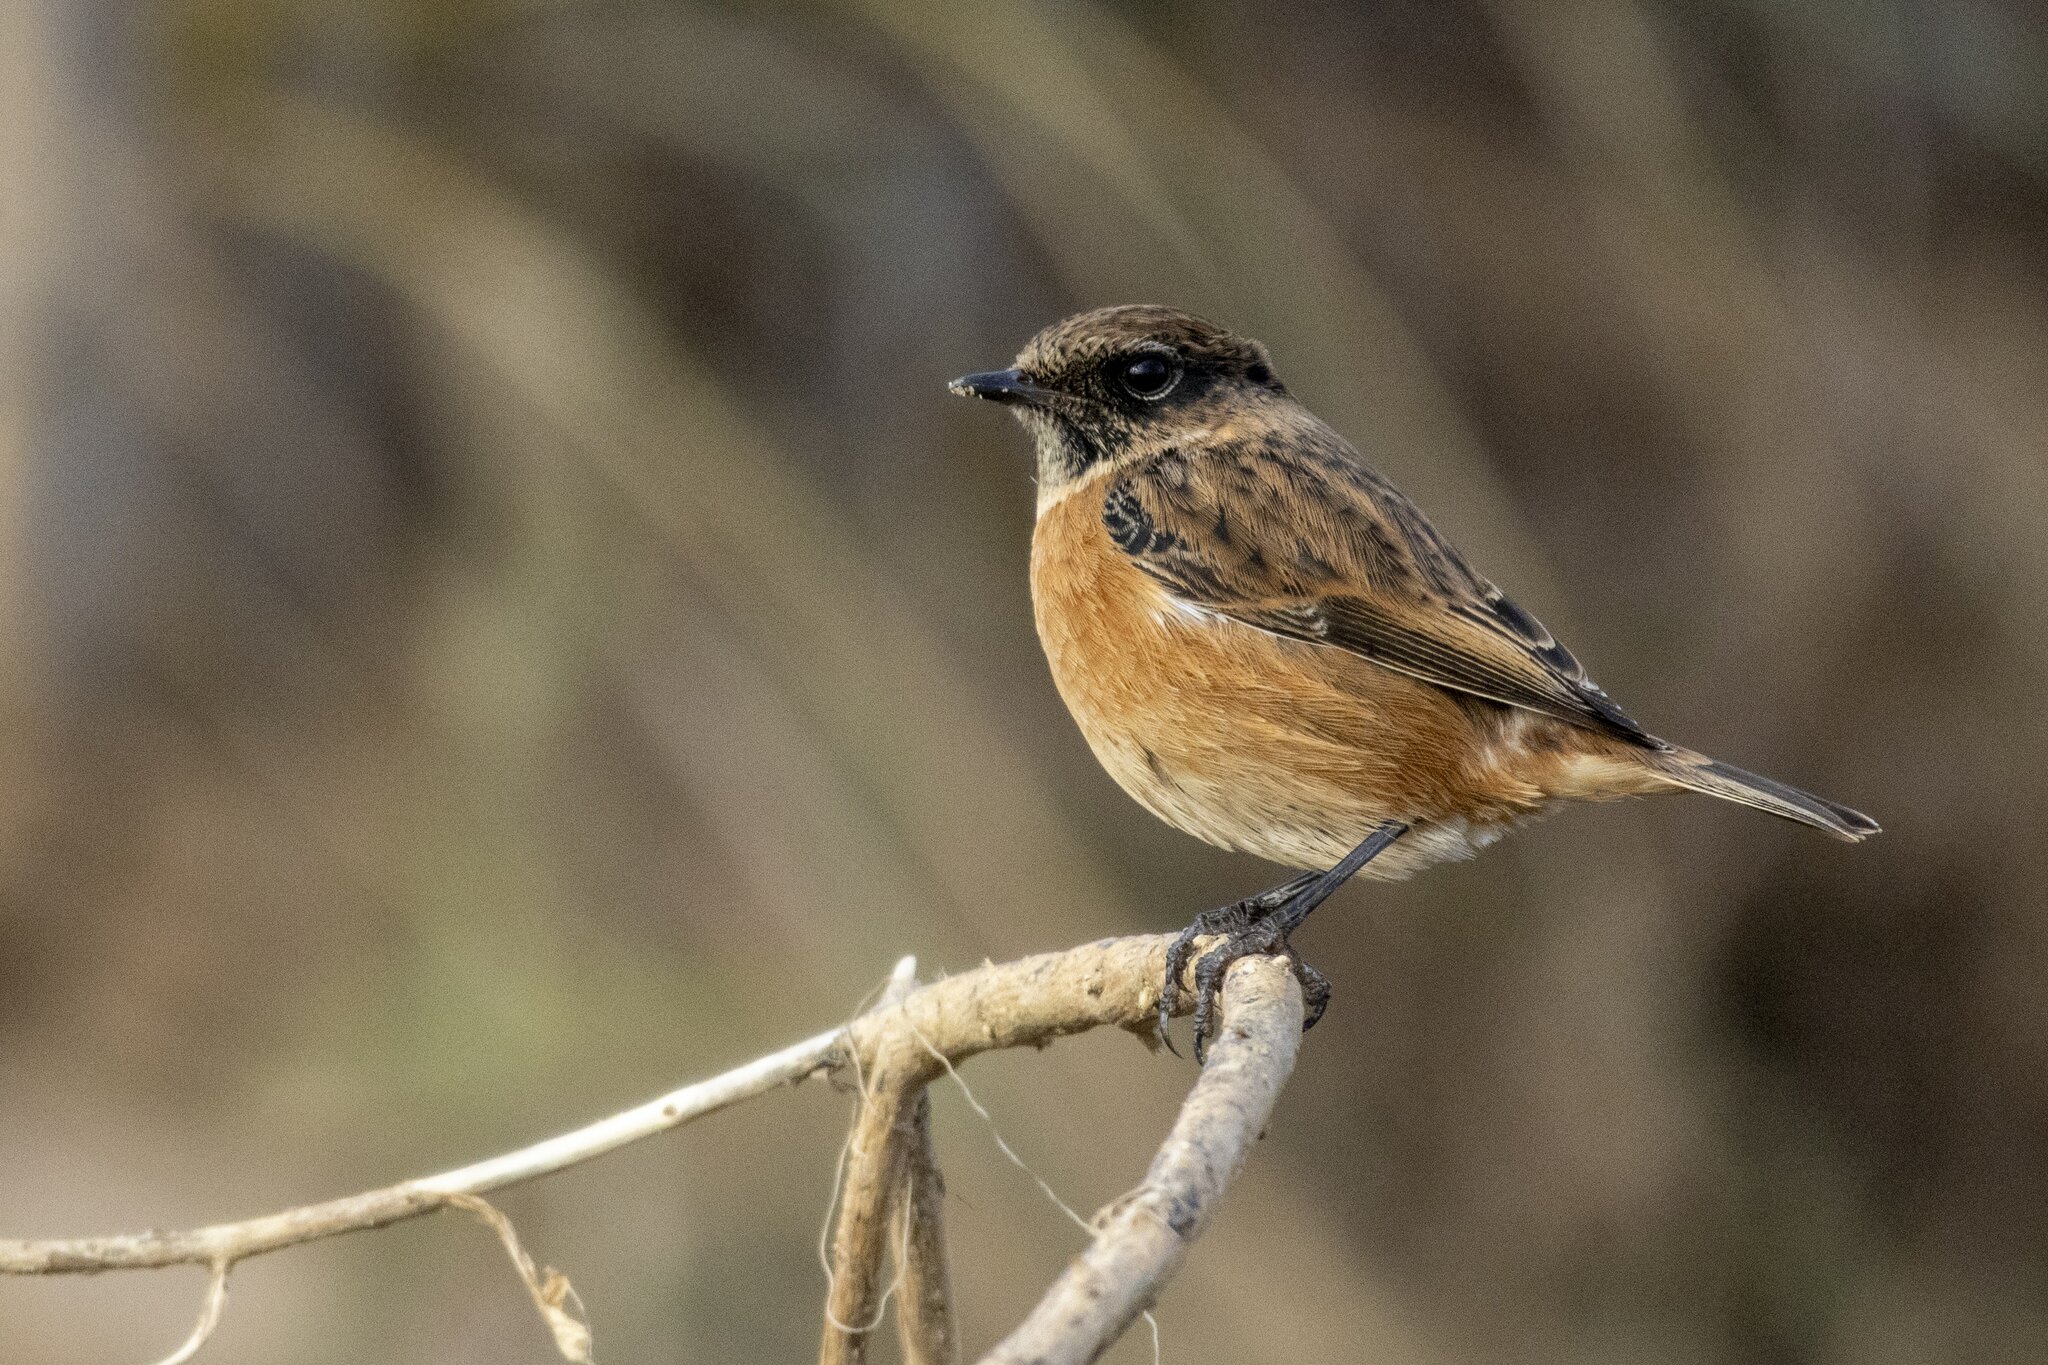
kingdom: Animalia
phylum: Chordata
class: Aves
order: Passeriformes
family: Muscicapidae
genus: Saxicola
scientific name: Saxicola rubicola
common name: European stonechat
